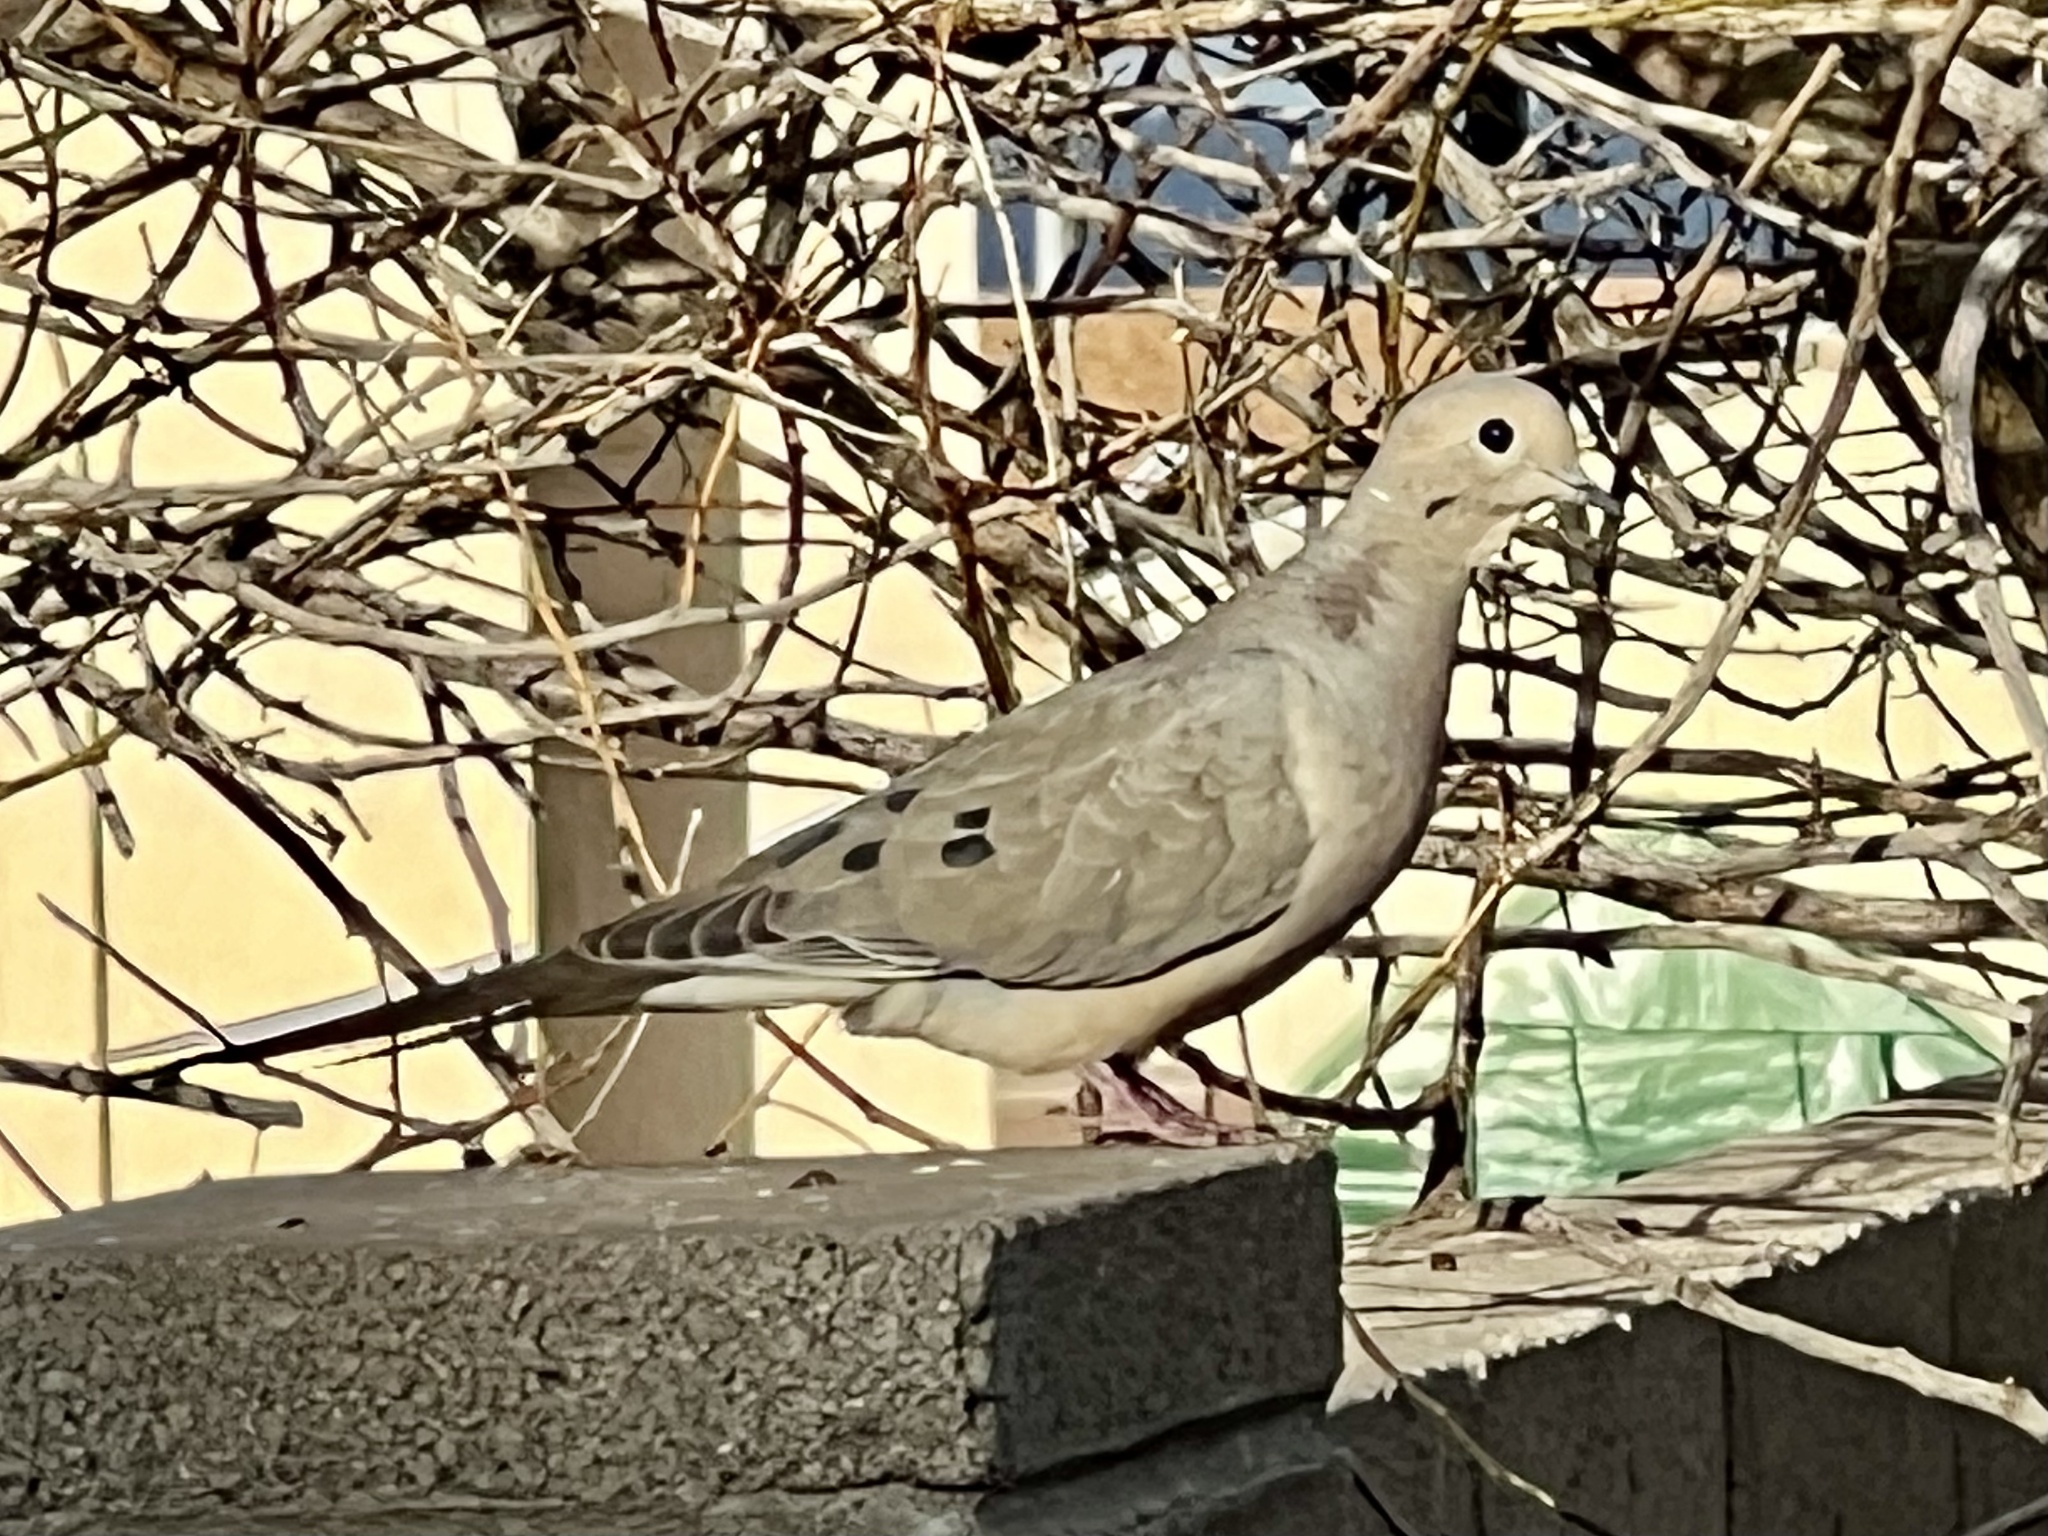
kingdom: Animalia
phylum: Chordata
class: Aves
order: Columbiformes
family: Columbidae
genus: Zenaida
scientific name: Zenaida macroura
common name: Mourning dove
